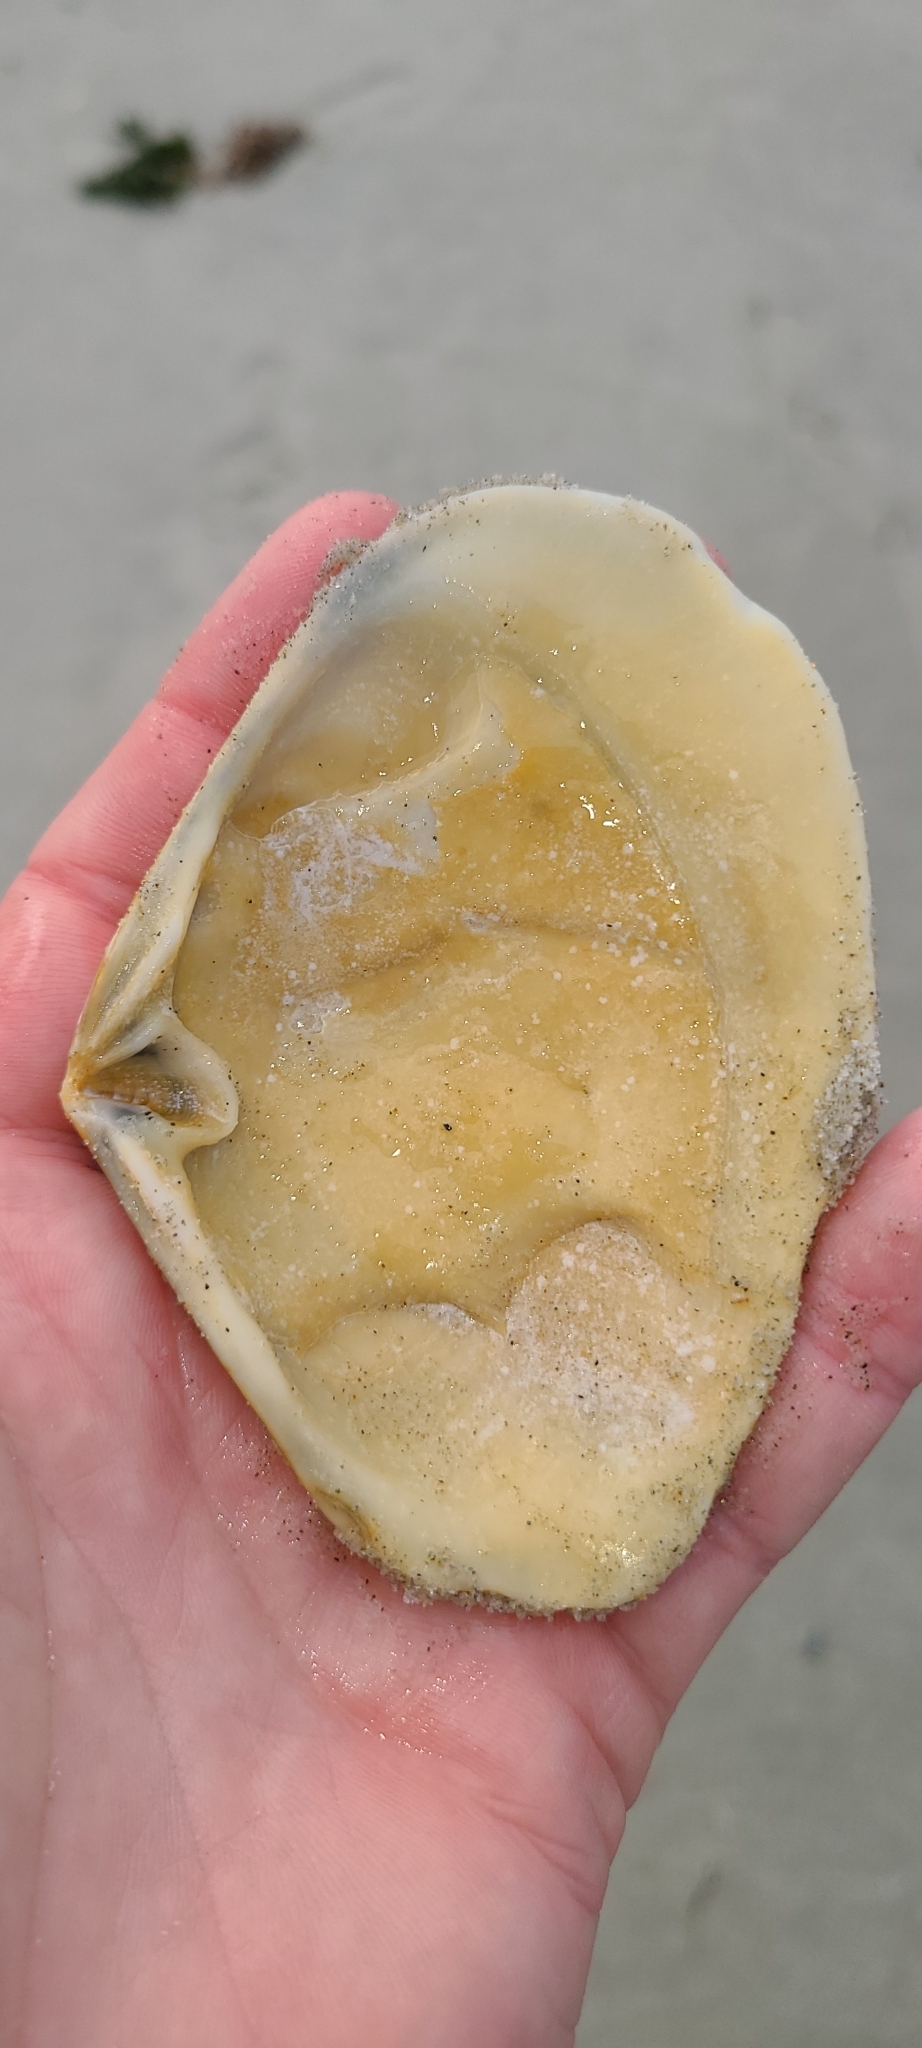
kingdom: Animalia
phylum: Mollusca
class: Bivalvia
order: Venerida
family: Mesodesmatidae
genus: Paphies
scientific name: Paphies donacina
